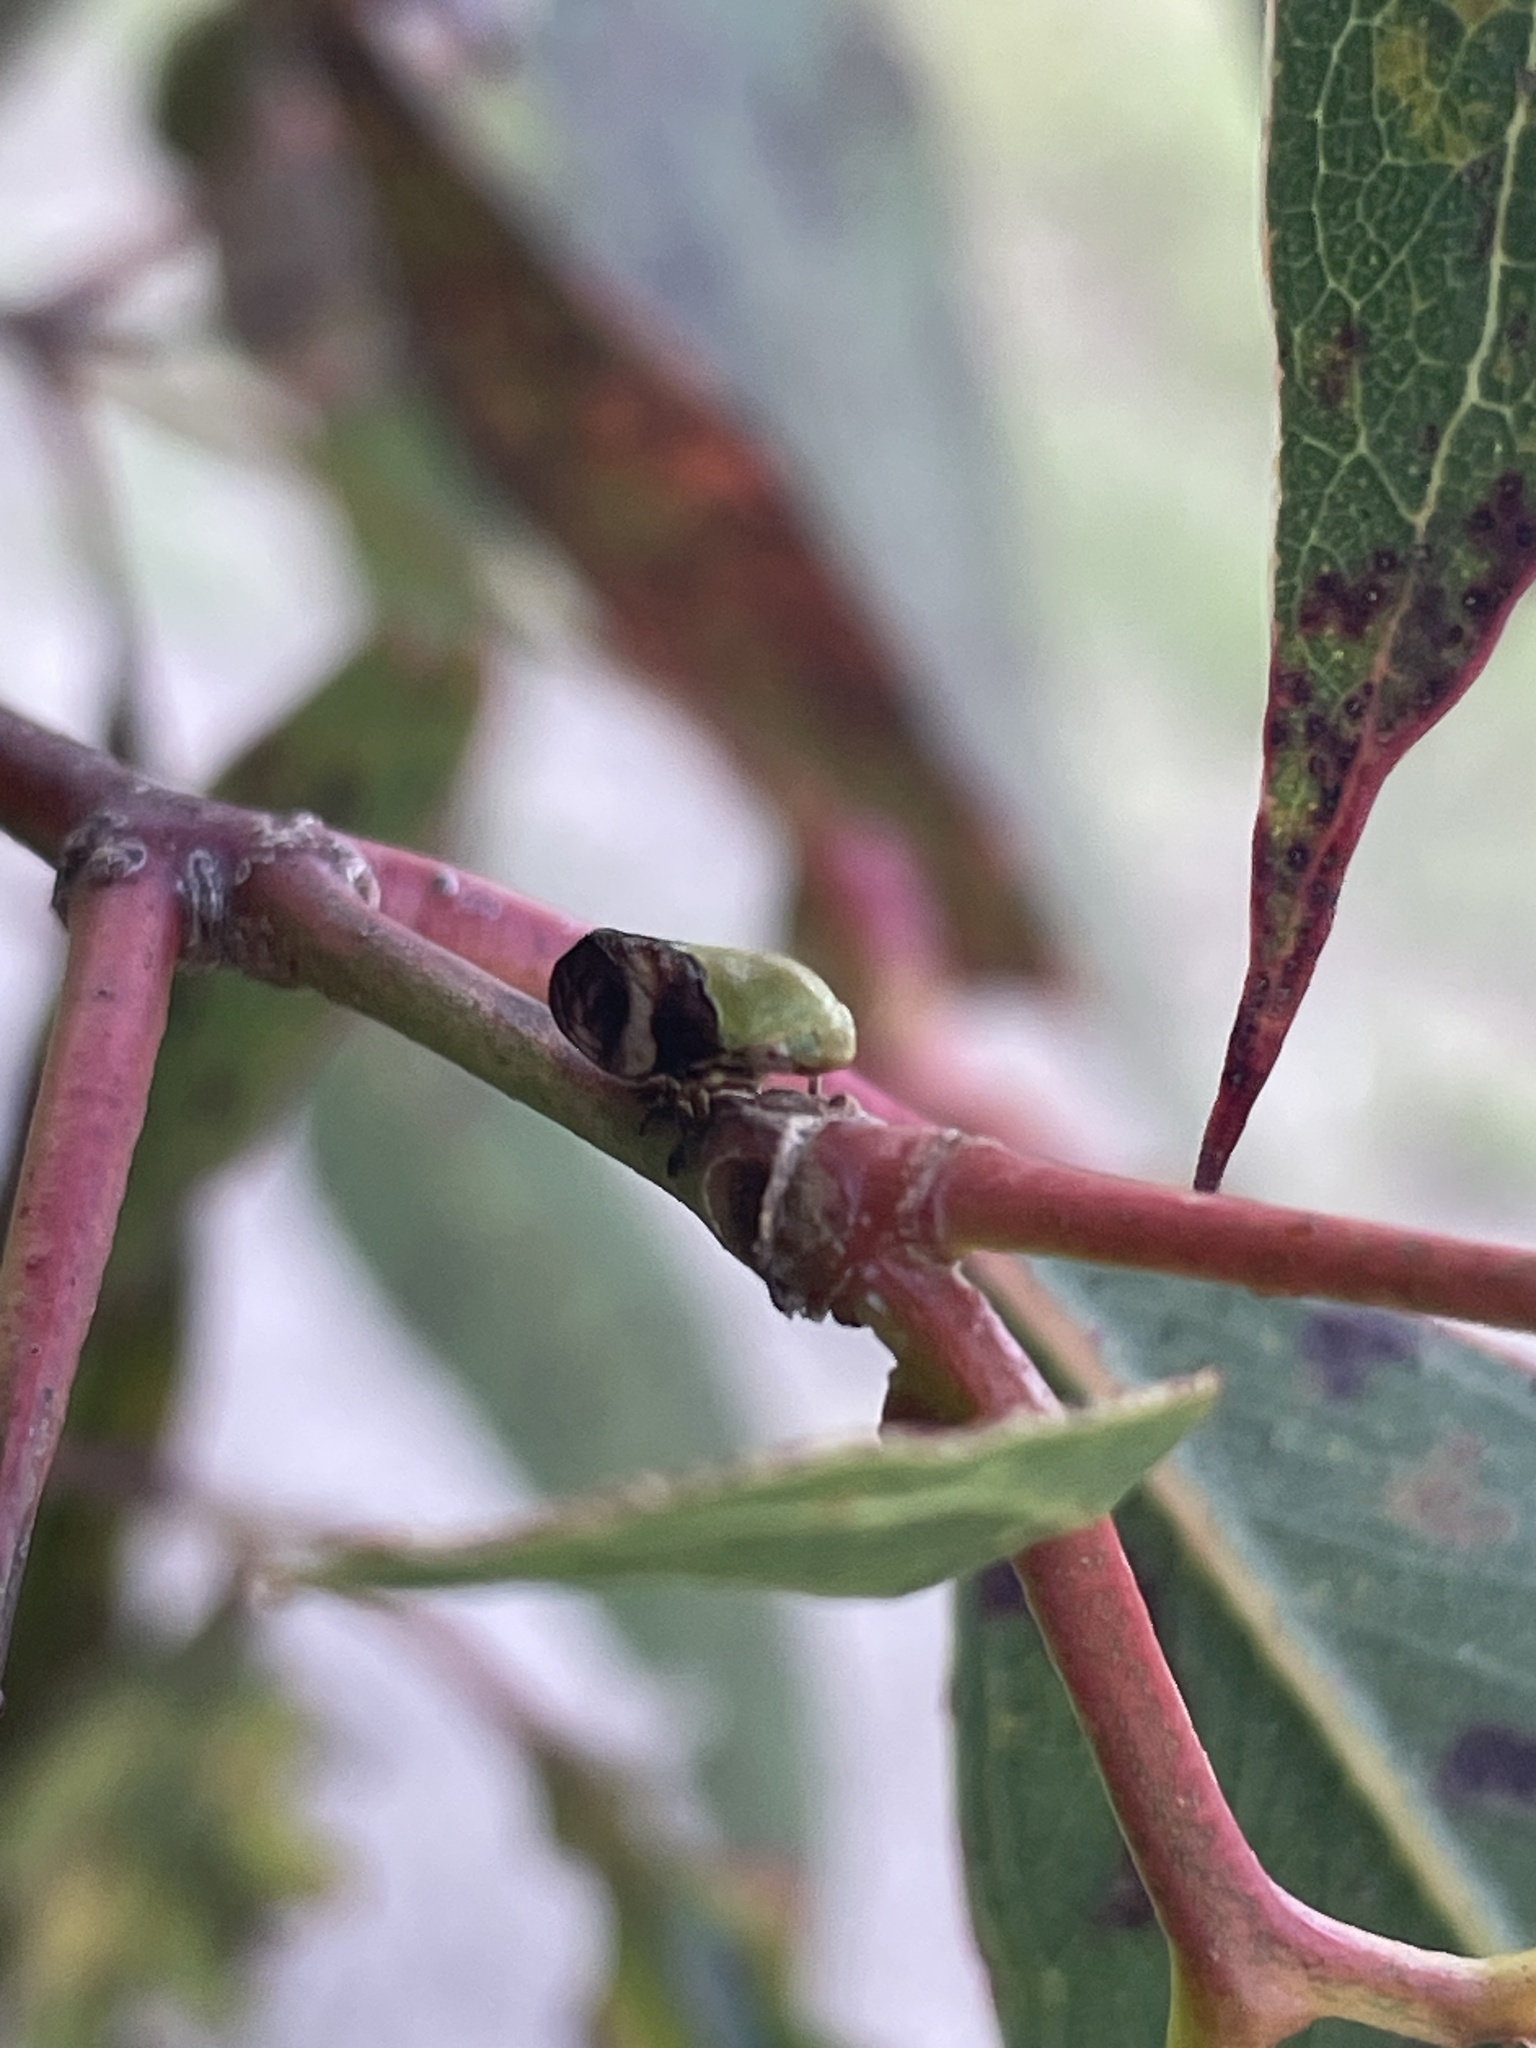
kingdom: Animalia
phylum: Arthropoda
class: Insecta
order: Hemiptera
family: Cicadellidae
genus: Brunotartessus
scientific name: Brunotartessus fulvus
